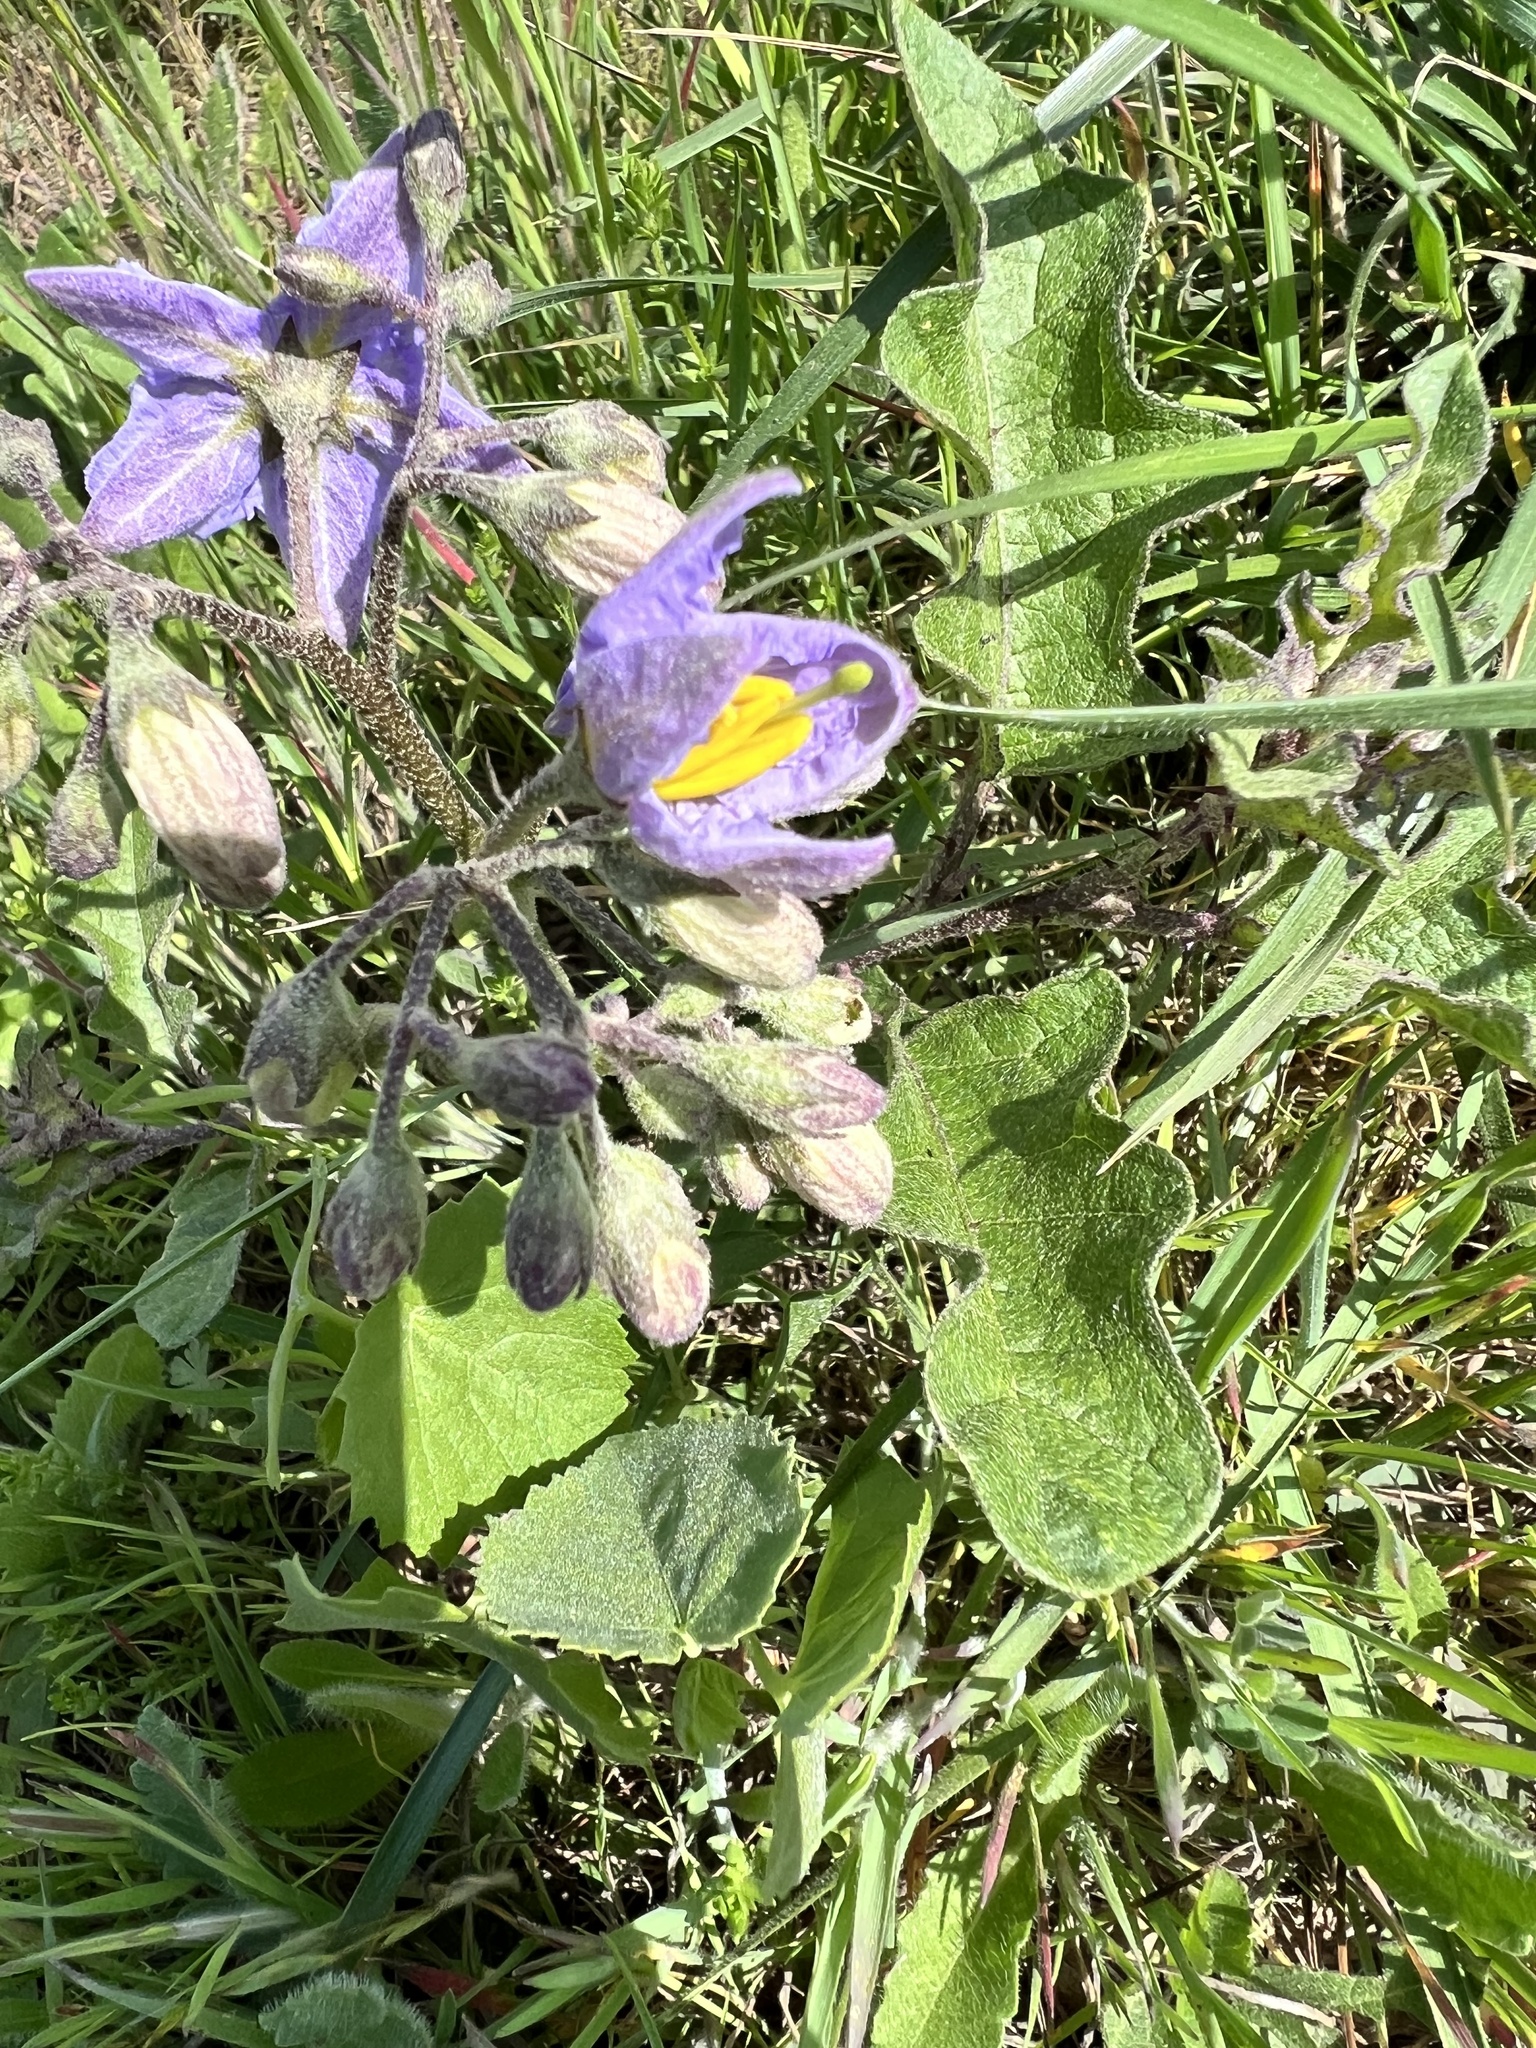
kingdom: Plantae
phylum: Tracheophyta
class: Magnoliopsida
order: Solanales
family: Solanaceae
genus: Solanum
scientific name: Solanum dimidiatum
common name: Carolina horse-nettle
